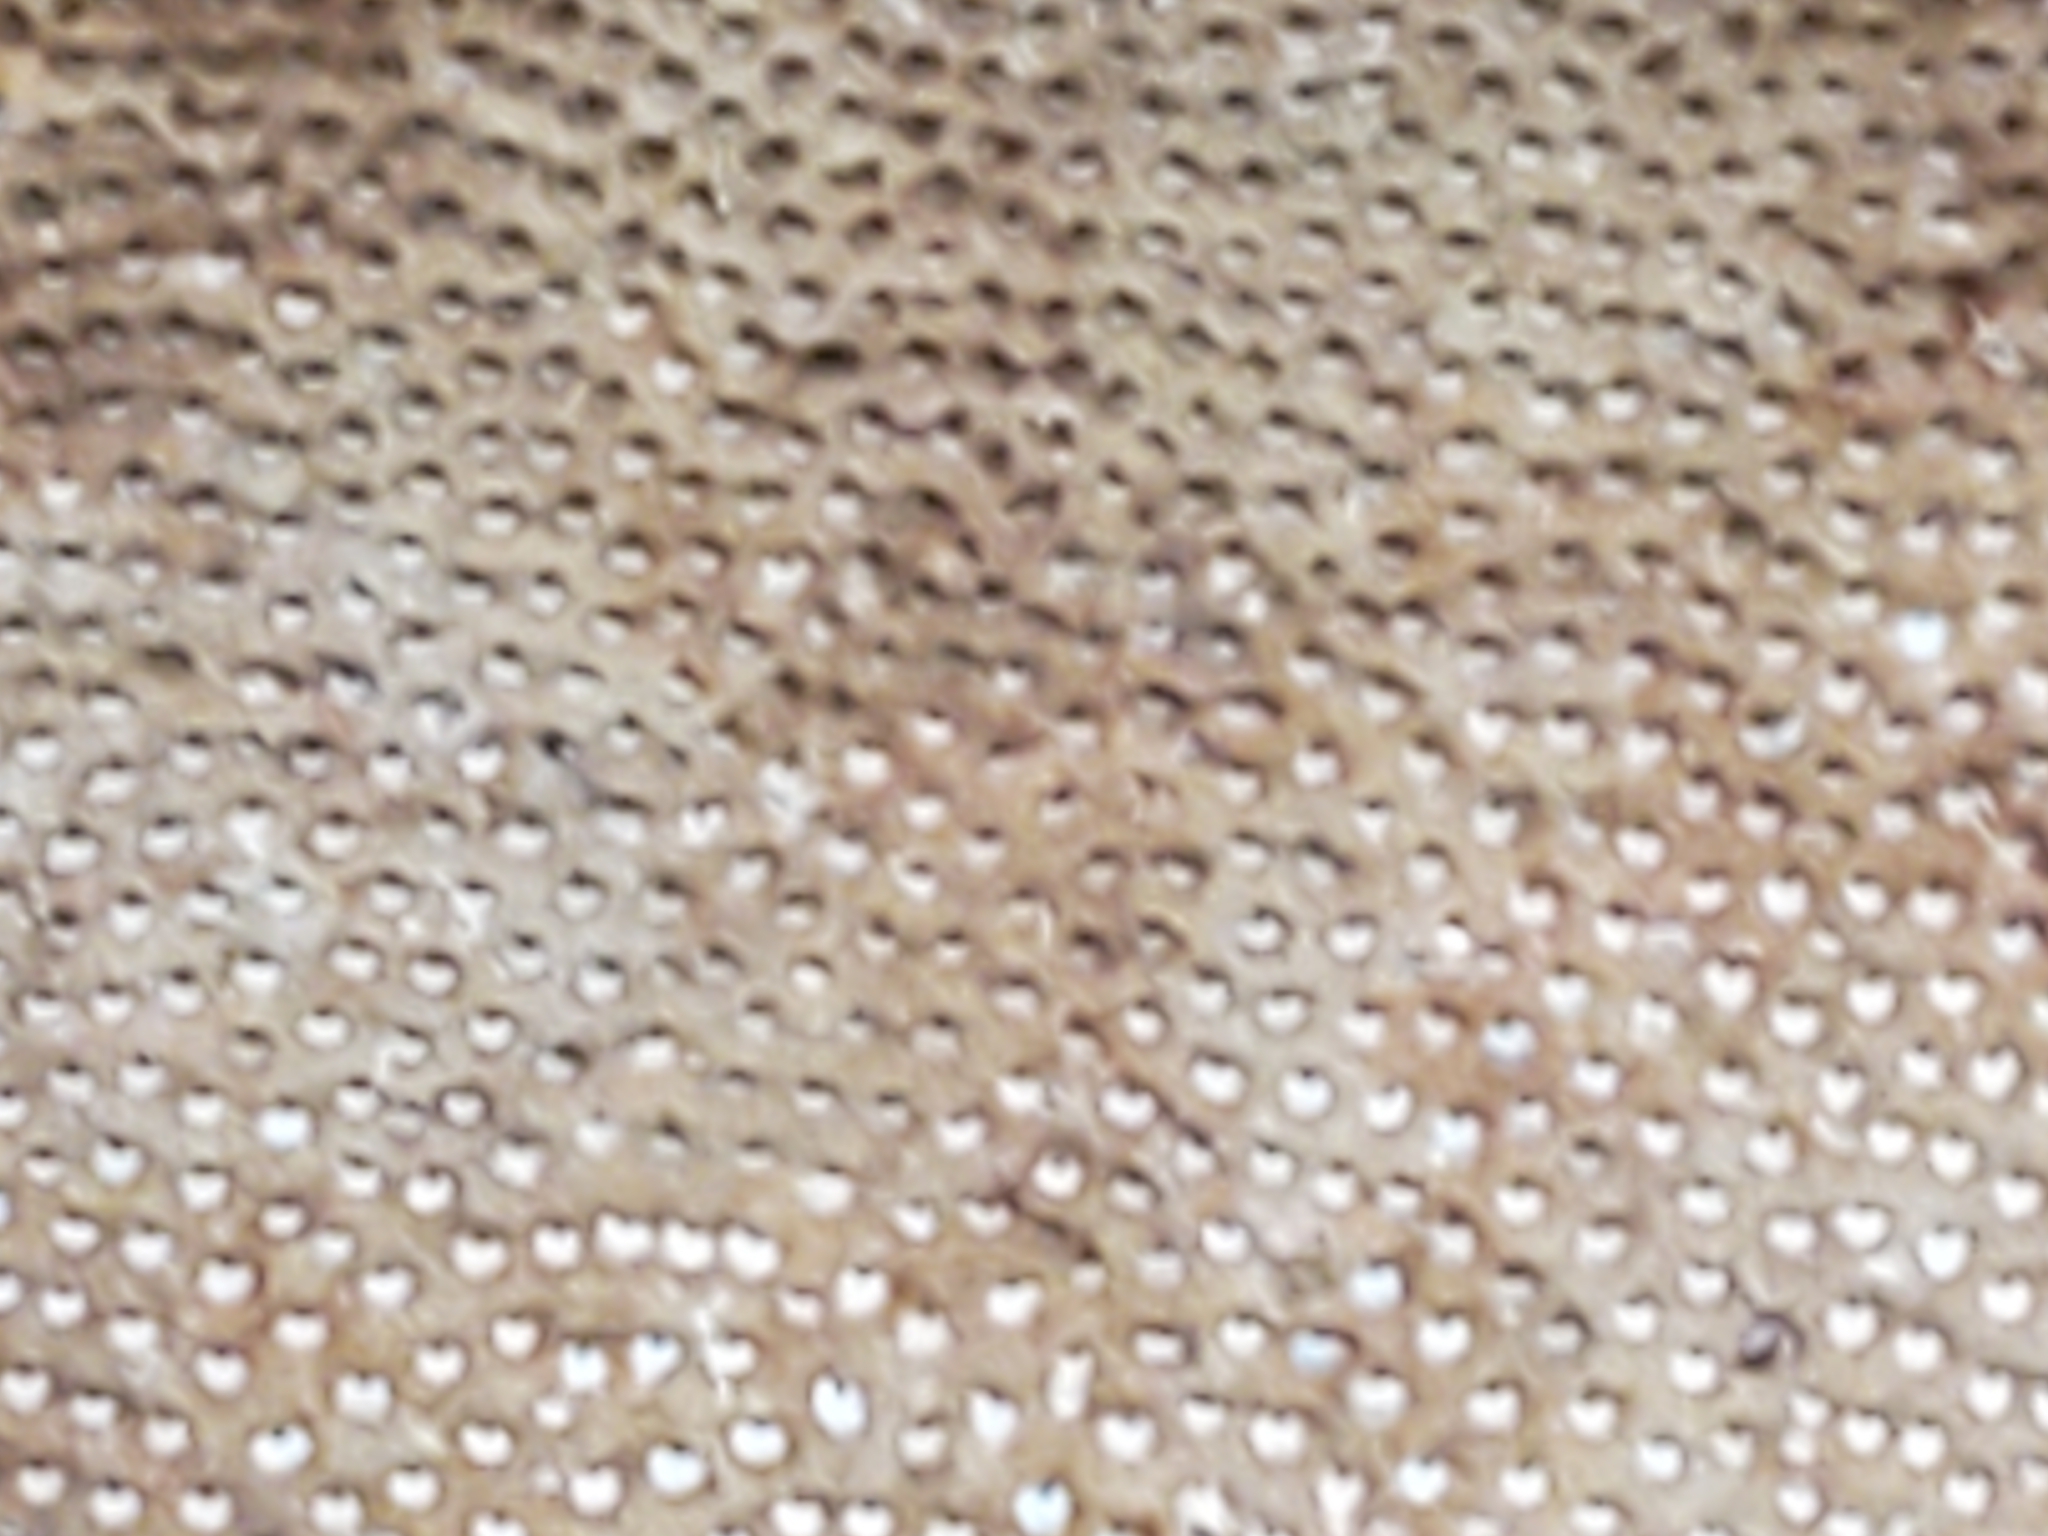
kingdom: Fungi
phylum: Basidiomycota
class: Agaricomycetes
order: Polyporales
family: Polyporaceae
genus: Fomes
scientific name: Fomes fomentarius
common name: Hoof fungus
